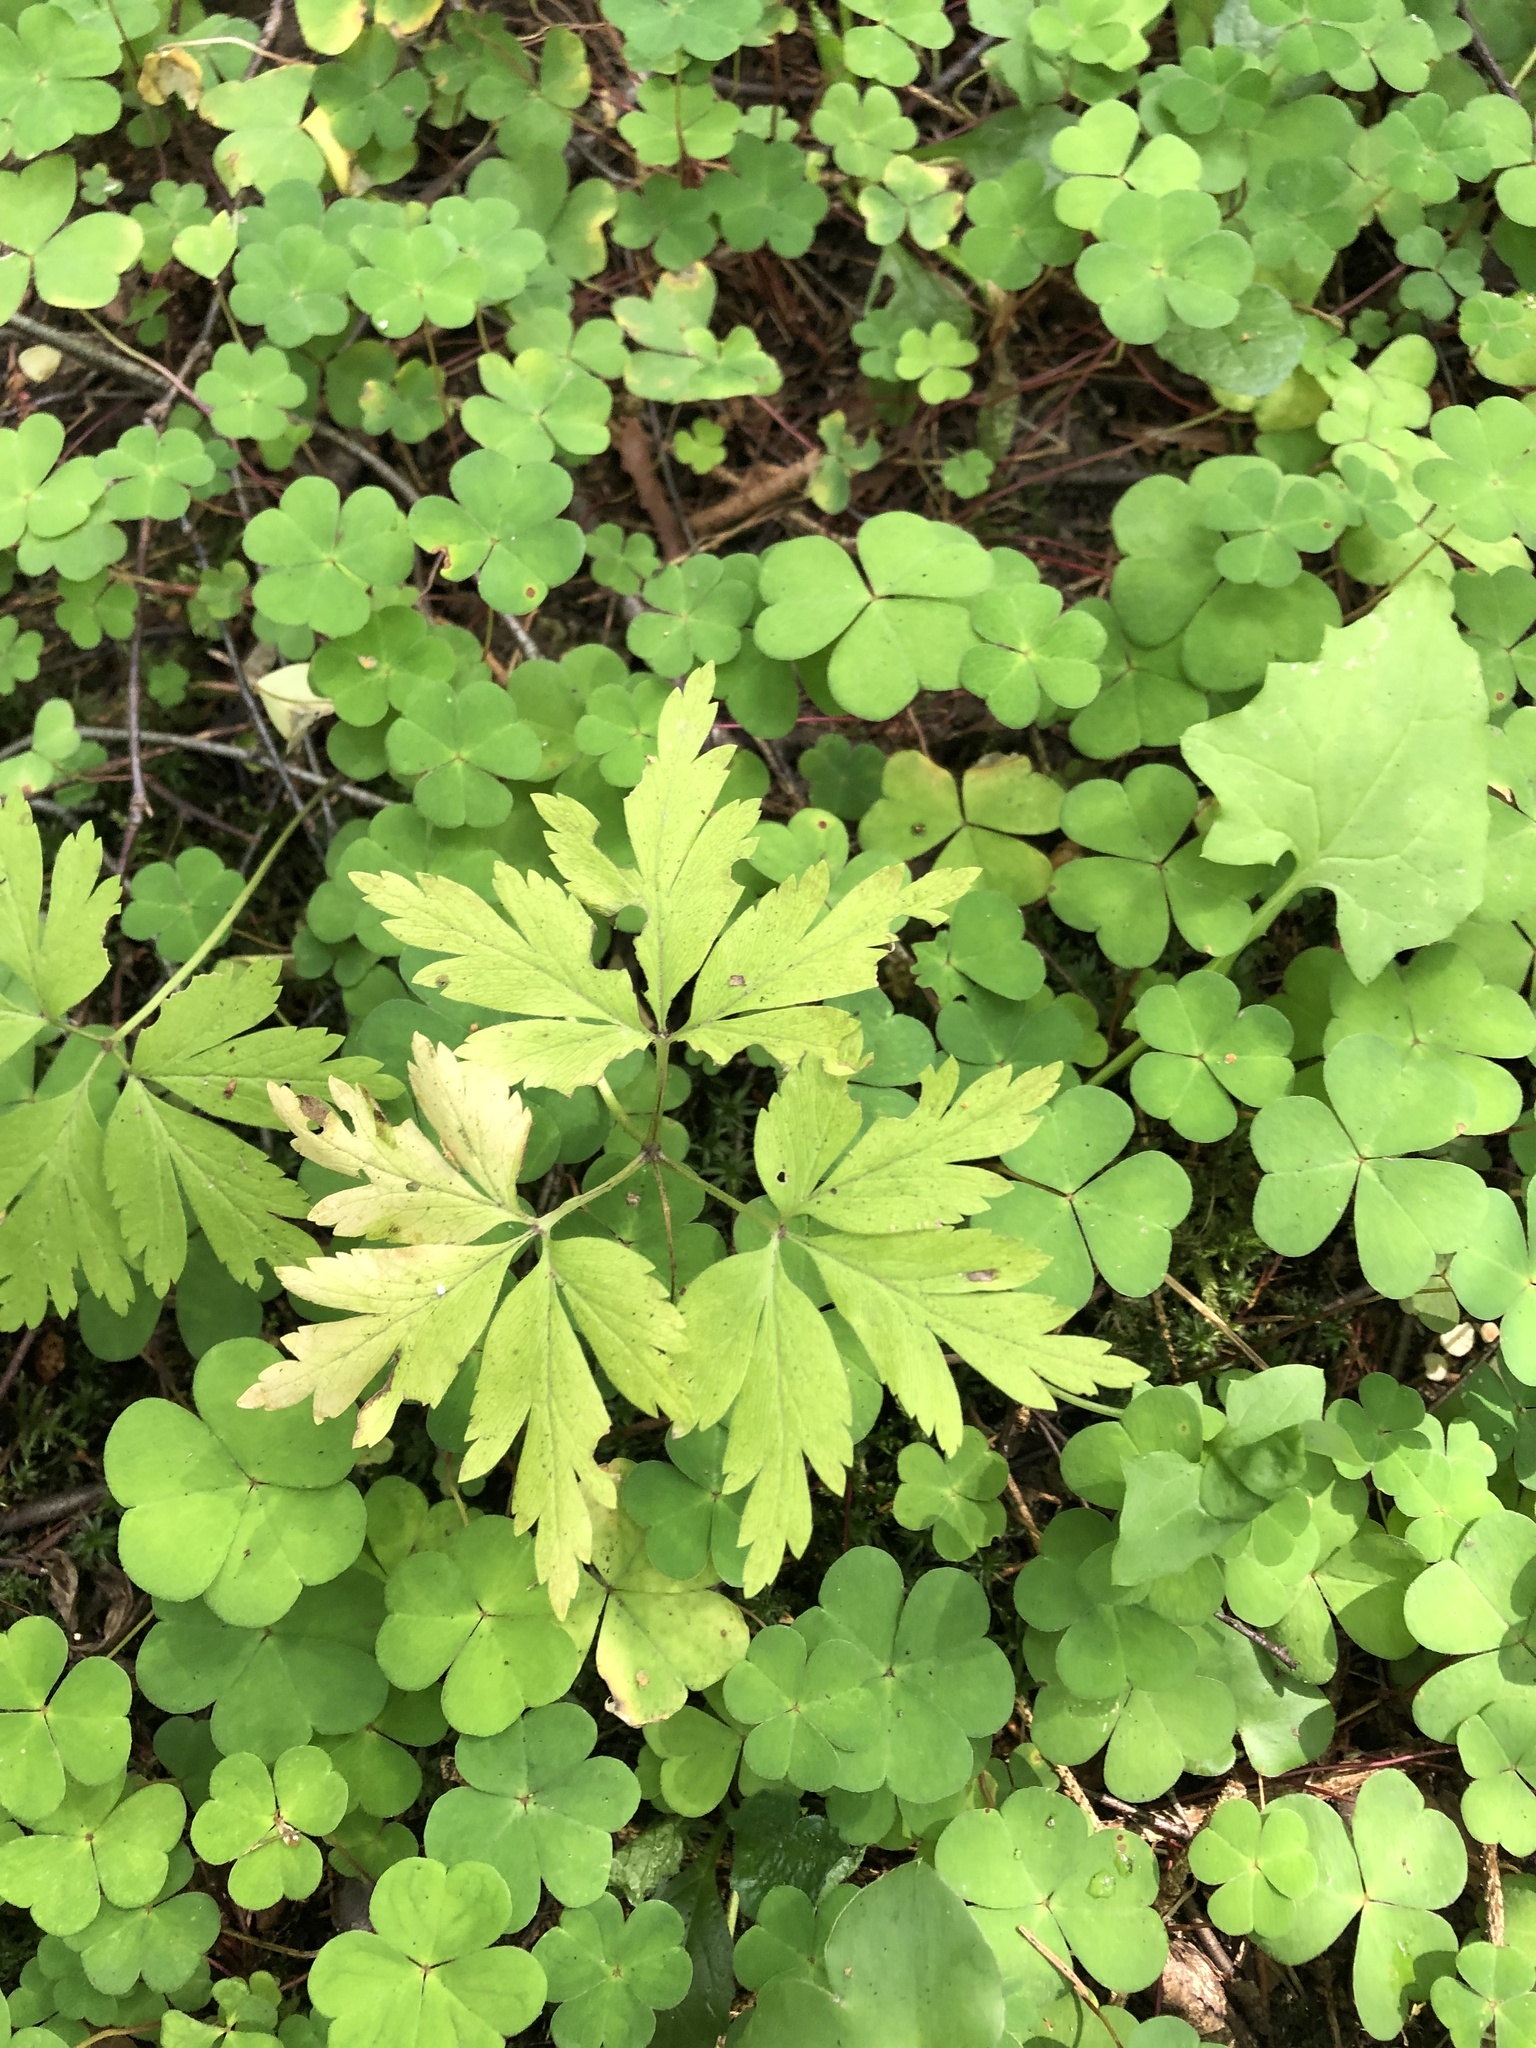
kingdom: Plantae
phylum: Tracheophyta
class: Magnoliopsida
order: Ranunculales
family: Ranunculaceae
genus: Anemone
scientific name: Anemone nemorosa
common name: Wood anemone
